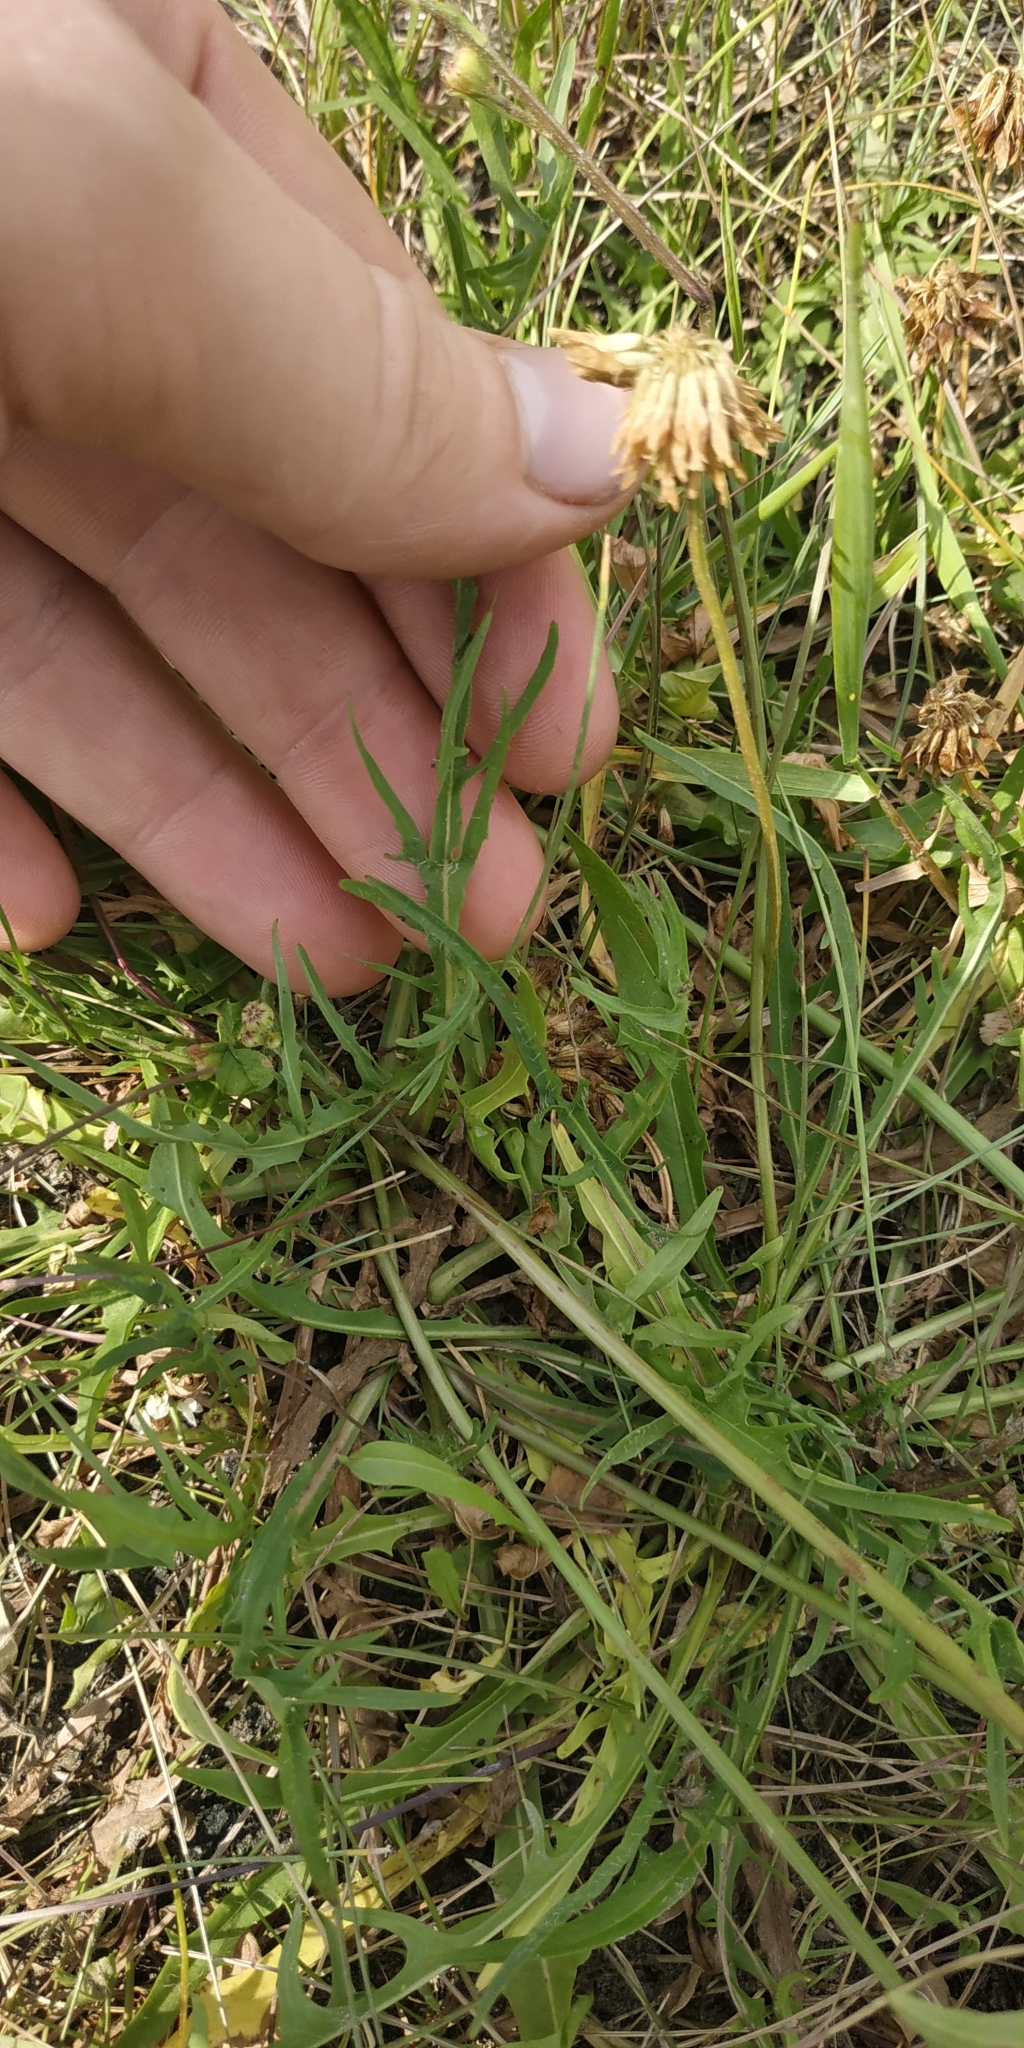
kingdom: Plantae
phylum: Tracheophyta
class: Magnoliopsida
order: Asterales
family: Asteraceae
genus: Scorzoneroides
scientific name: Scorzoneroides autumnalis
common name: Autumn hawkbit
